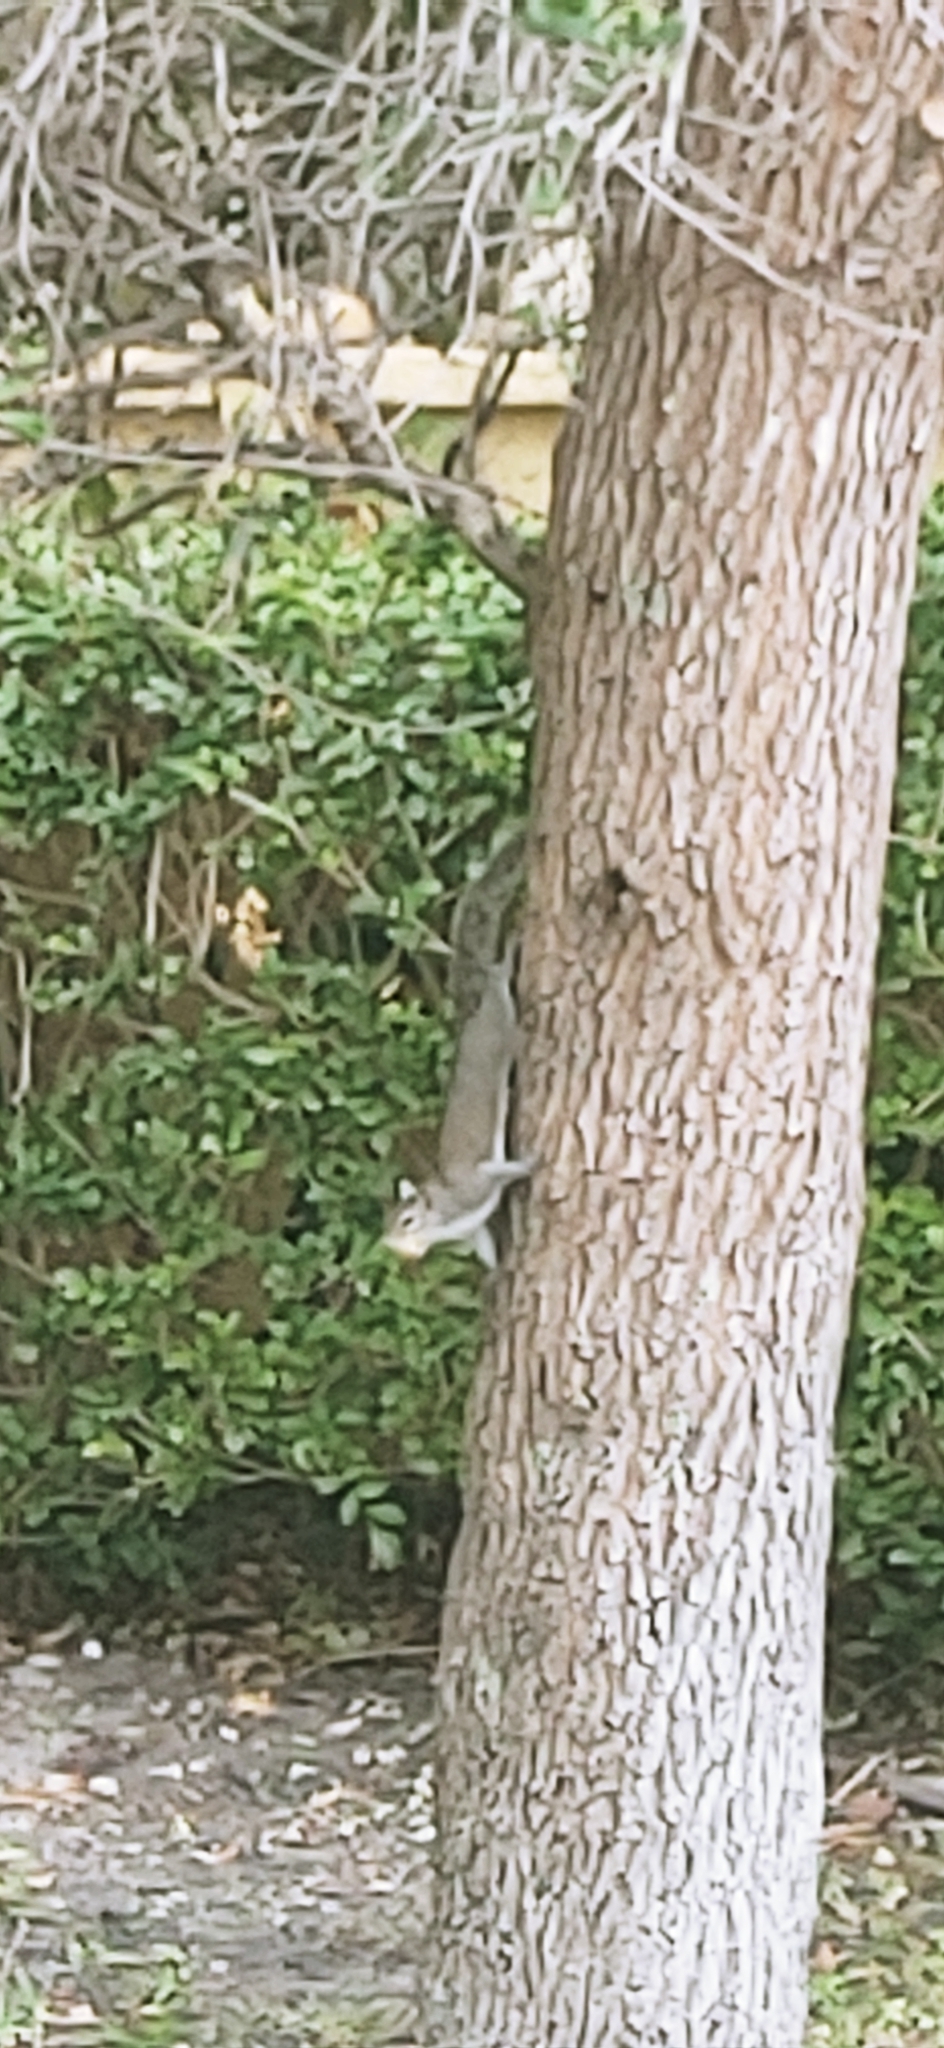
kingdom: Animalia
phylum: Chordata
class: Mammalia
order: Rodentia
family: Sciuridae
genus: Sciurus
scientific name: Sciurus carolinensis
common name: Eastern gray squirrel
